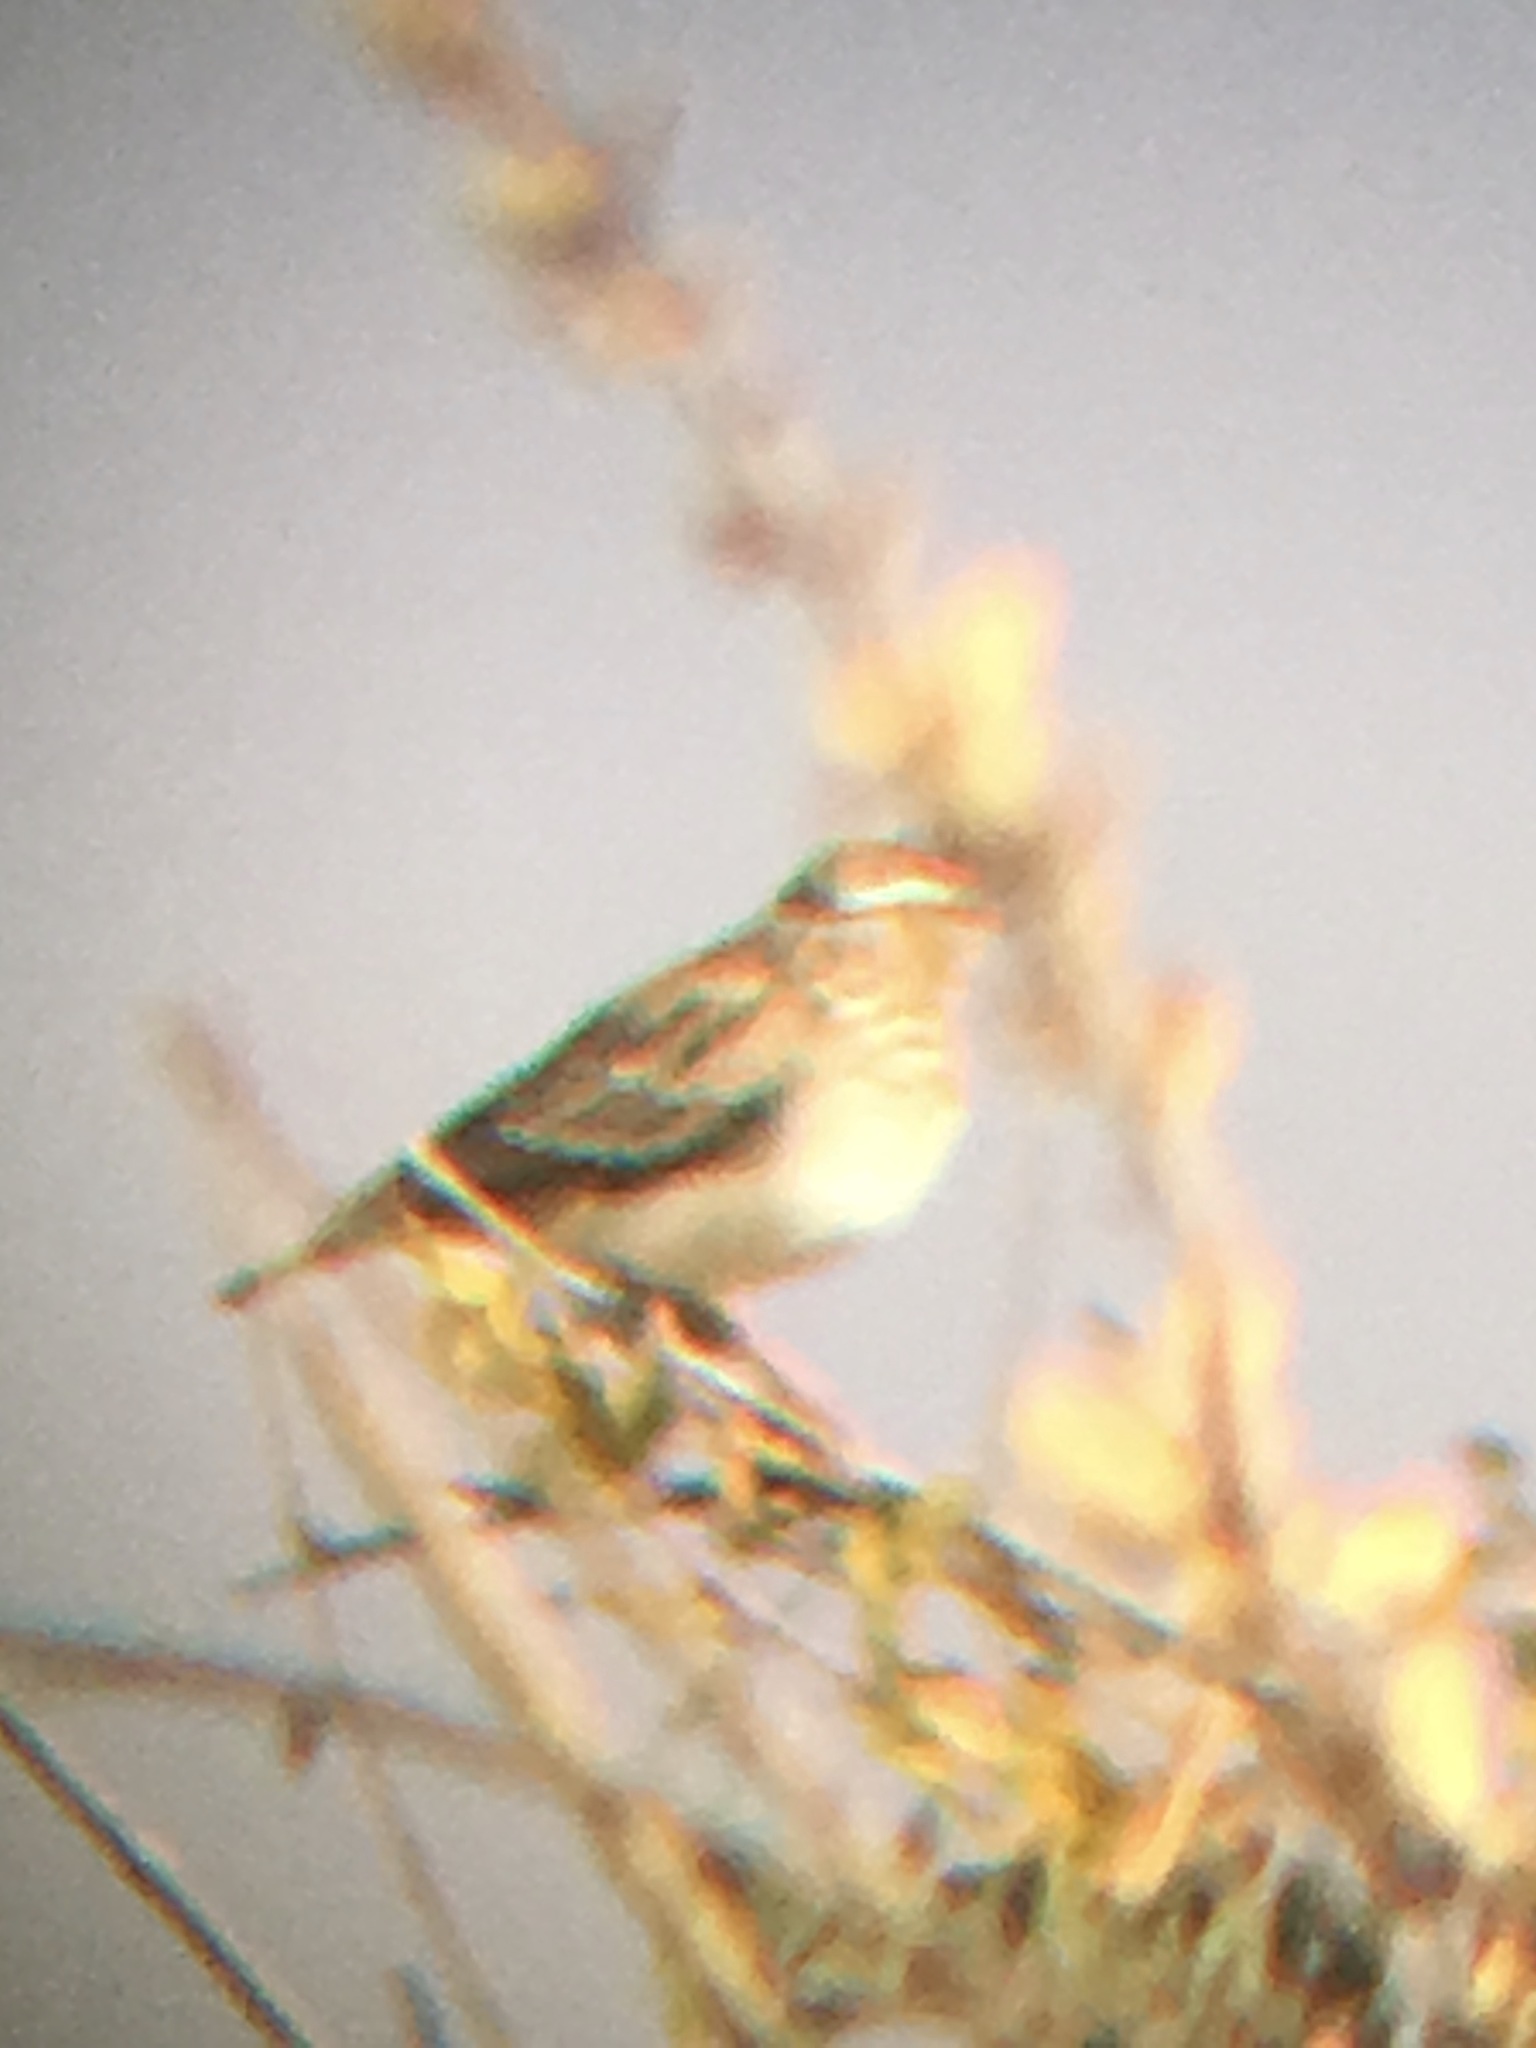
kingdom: Animalia
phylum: Chordata
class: Aves
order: Passeriformes
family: Alaudidae
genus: Calendulauda
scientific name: Calendulauda sabota
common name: Sabota lark
